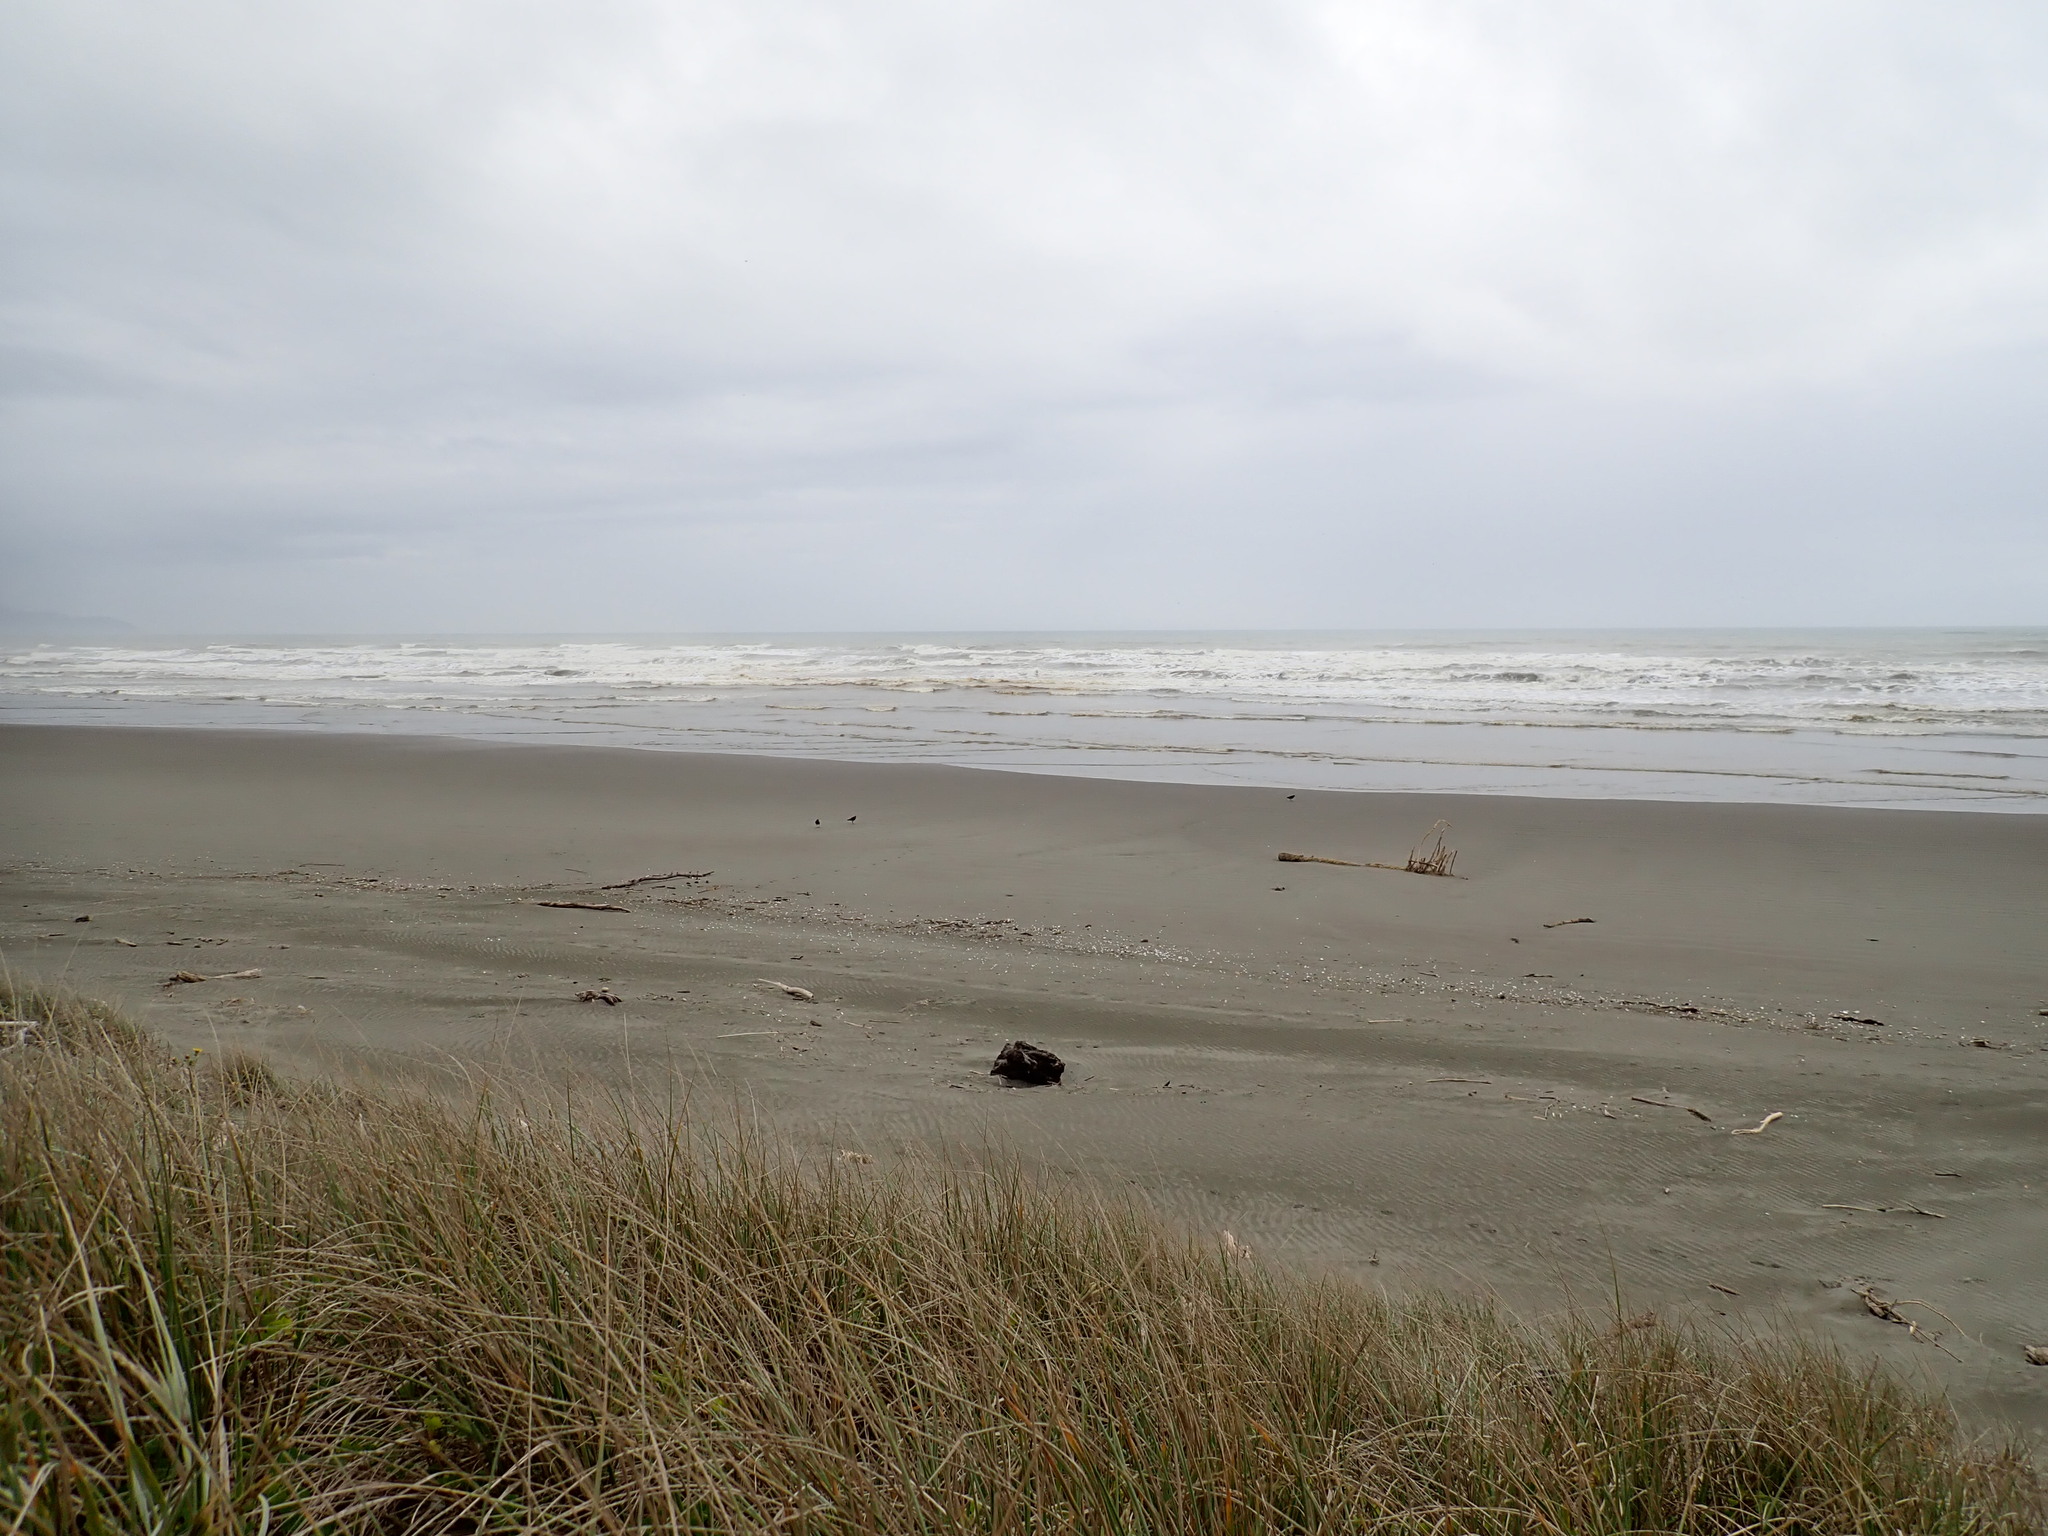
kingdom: Animalia
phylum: Chordata
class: Aves
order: Charadriiformes
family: Haematopodidae
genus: Haematopus
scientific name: Haematopus unicolor
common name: Variable oystercatcher
